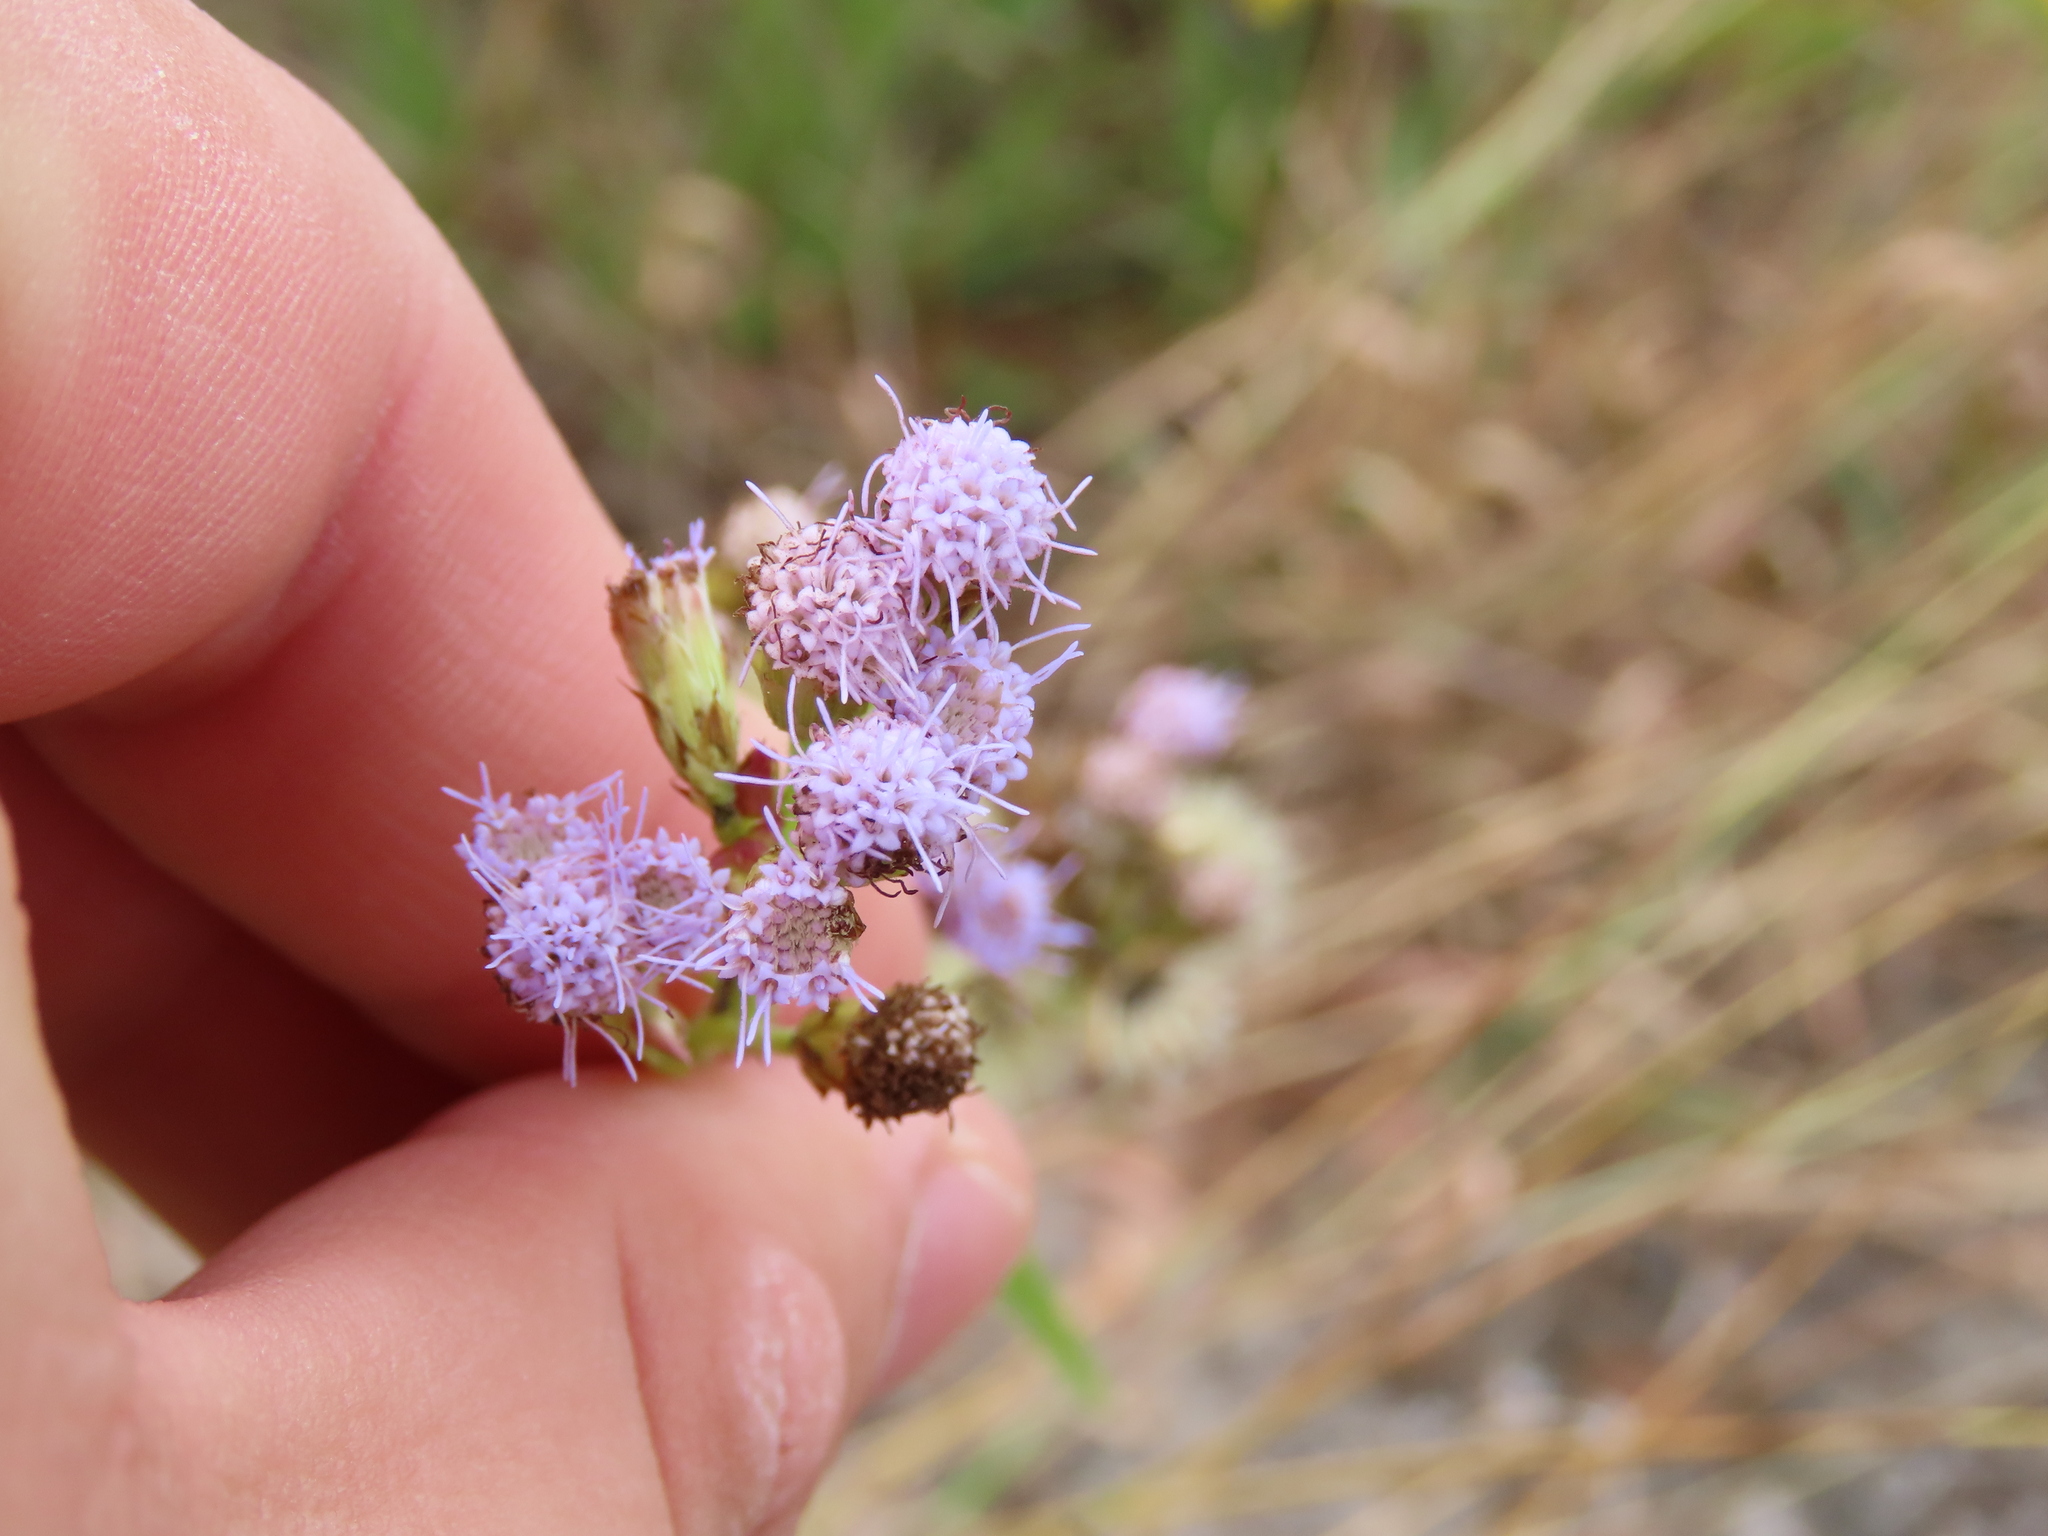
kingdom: Plantae
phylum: Tracheophyta
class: Magnoliopsida
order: Asterales
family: Asteraceae
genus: Praxelis
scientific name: Praxelis clematidea
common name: Praxelis
